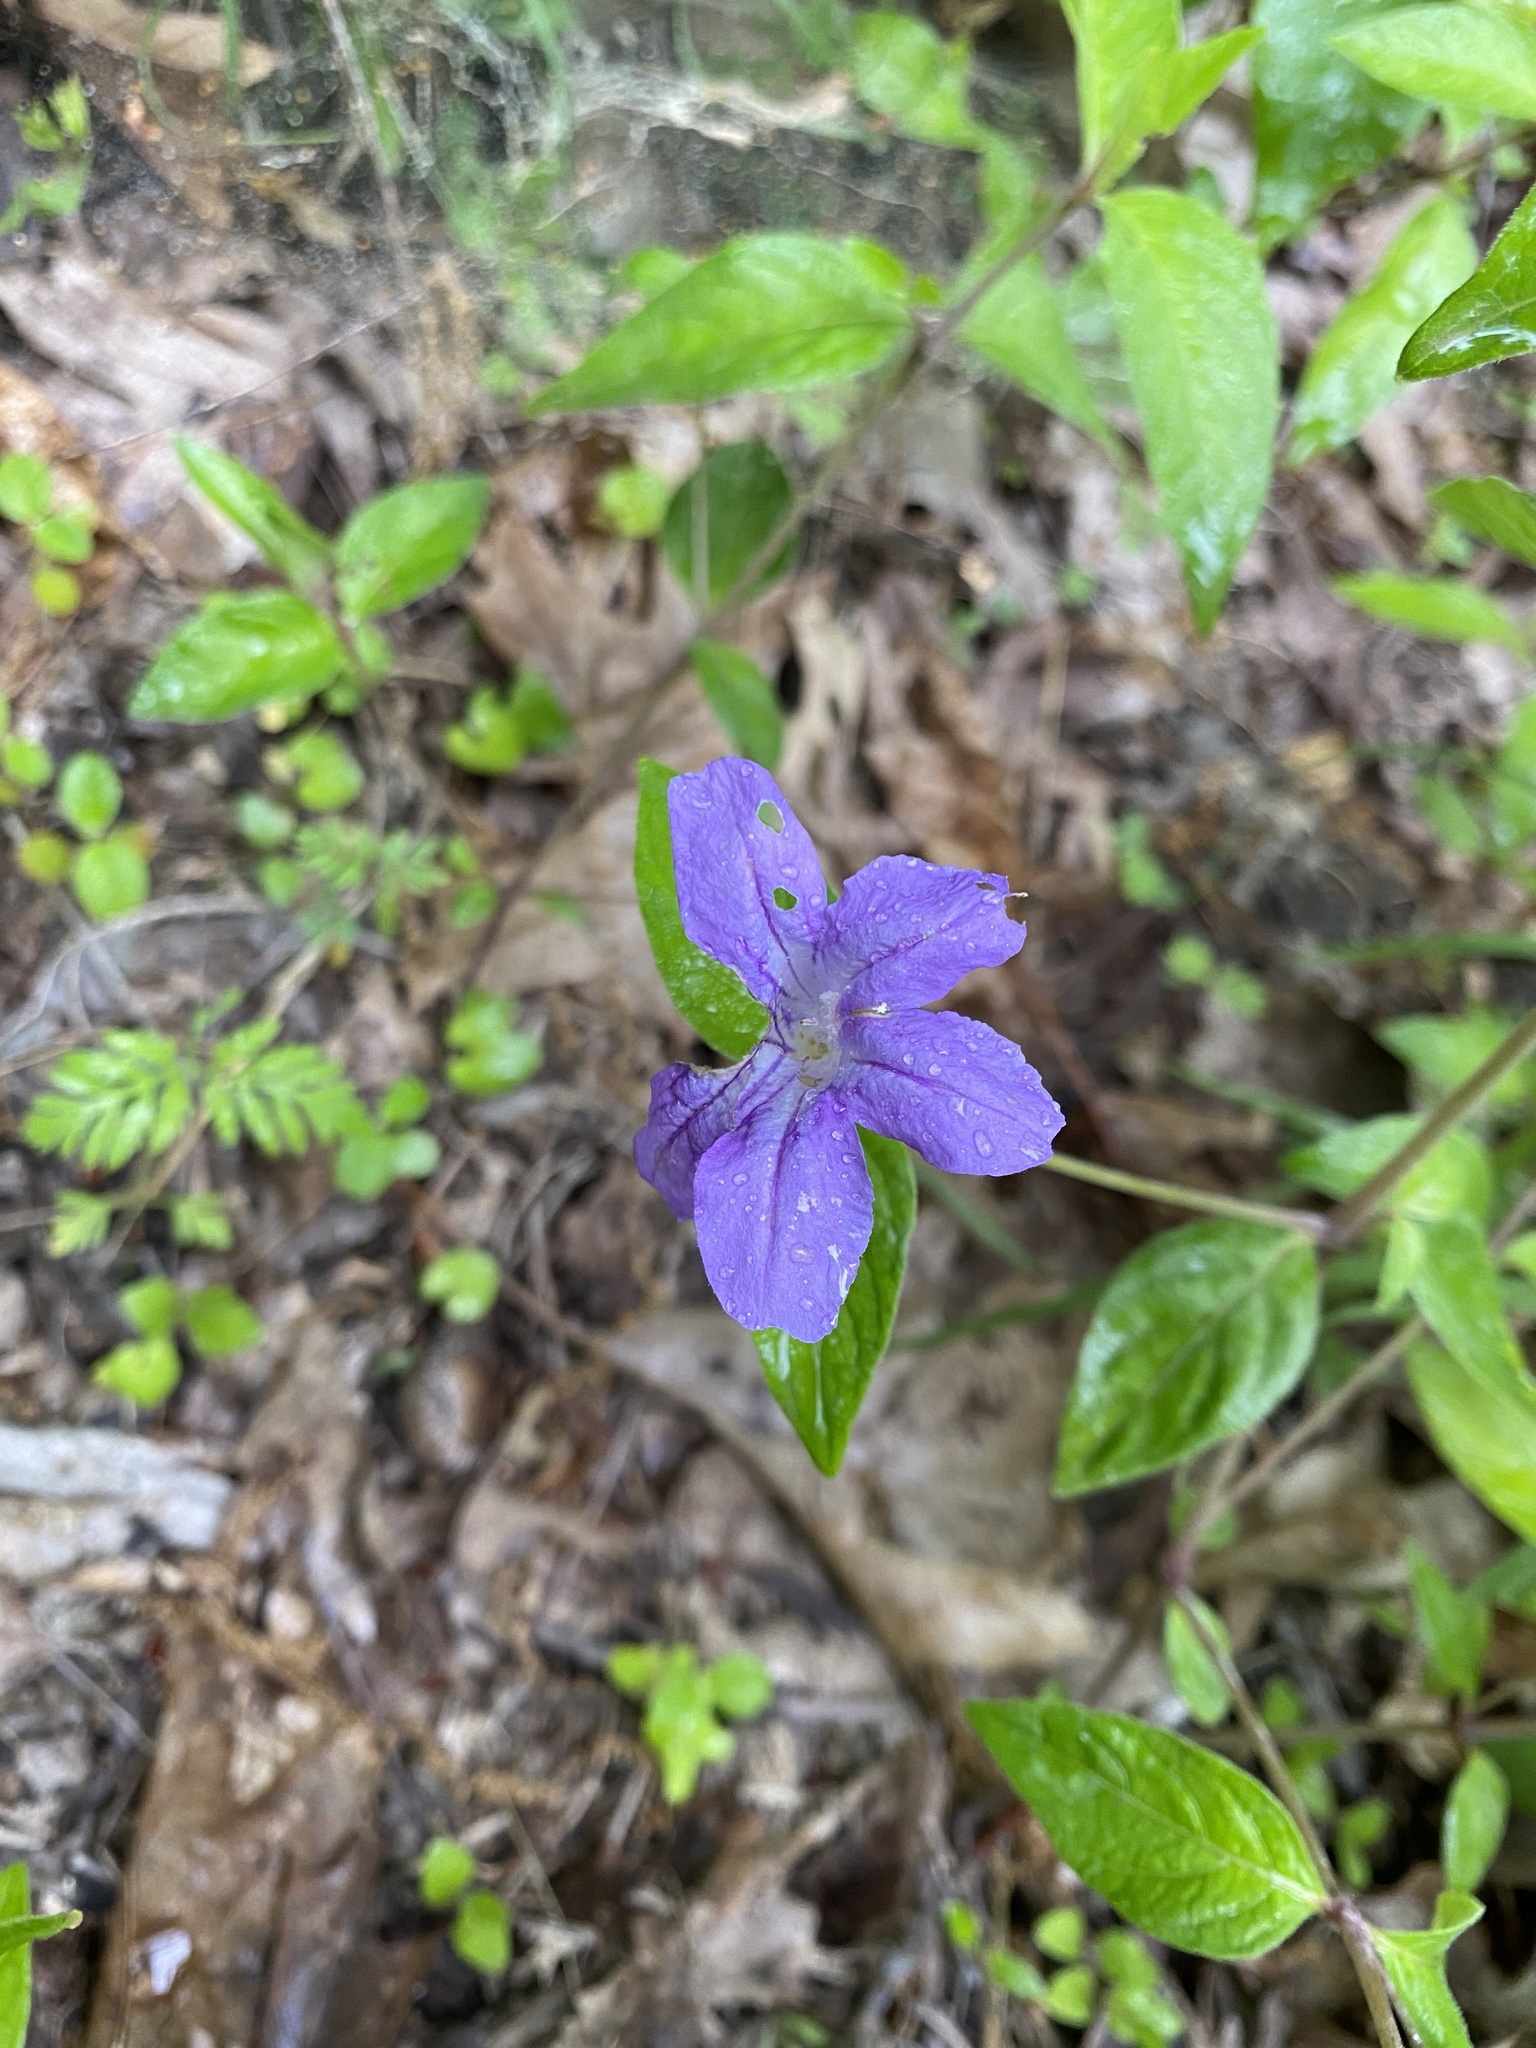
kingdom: Plantae
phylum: Tracheophyta
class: Magnoliopsida
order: Lamiales
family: Acanthaceae
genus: Ruellia
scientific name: Ruellia pedunculata
